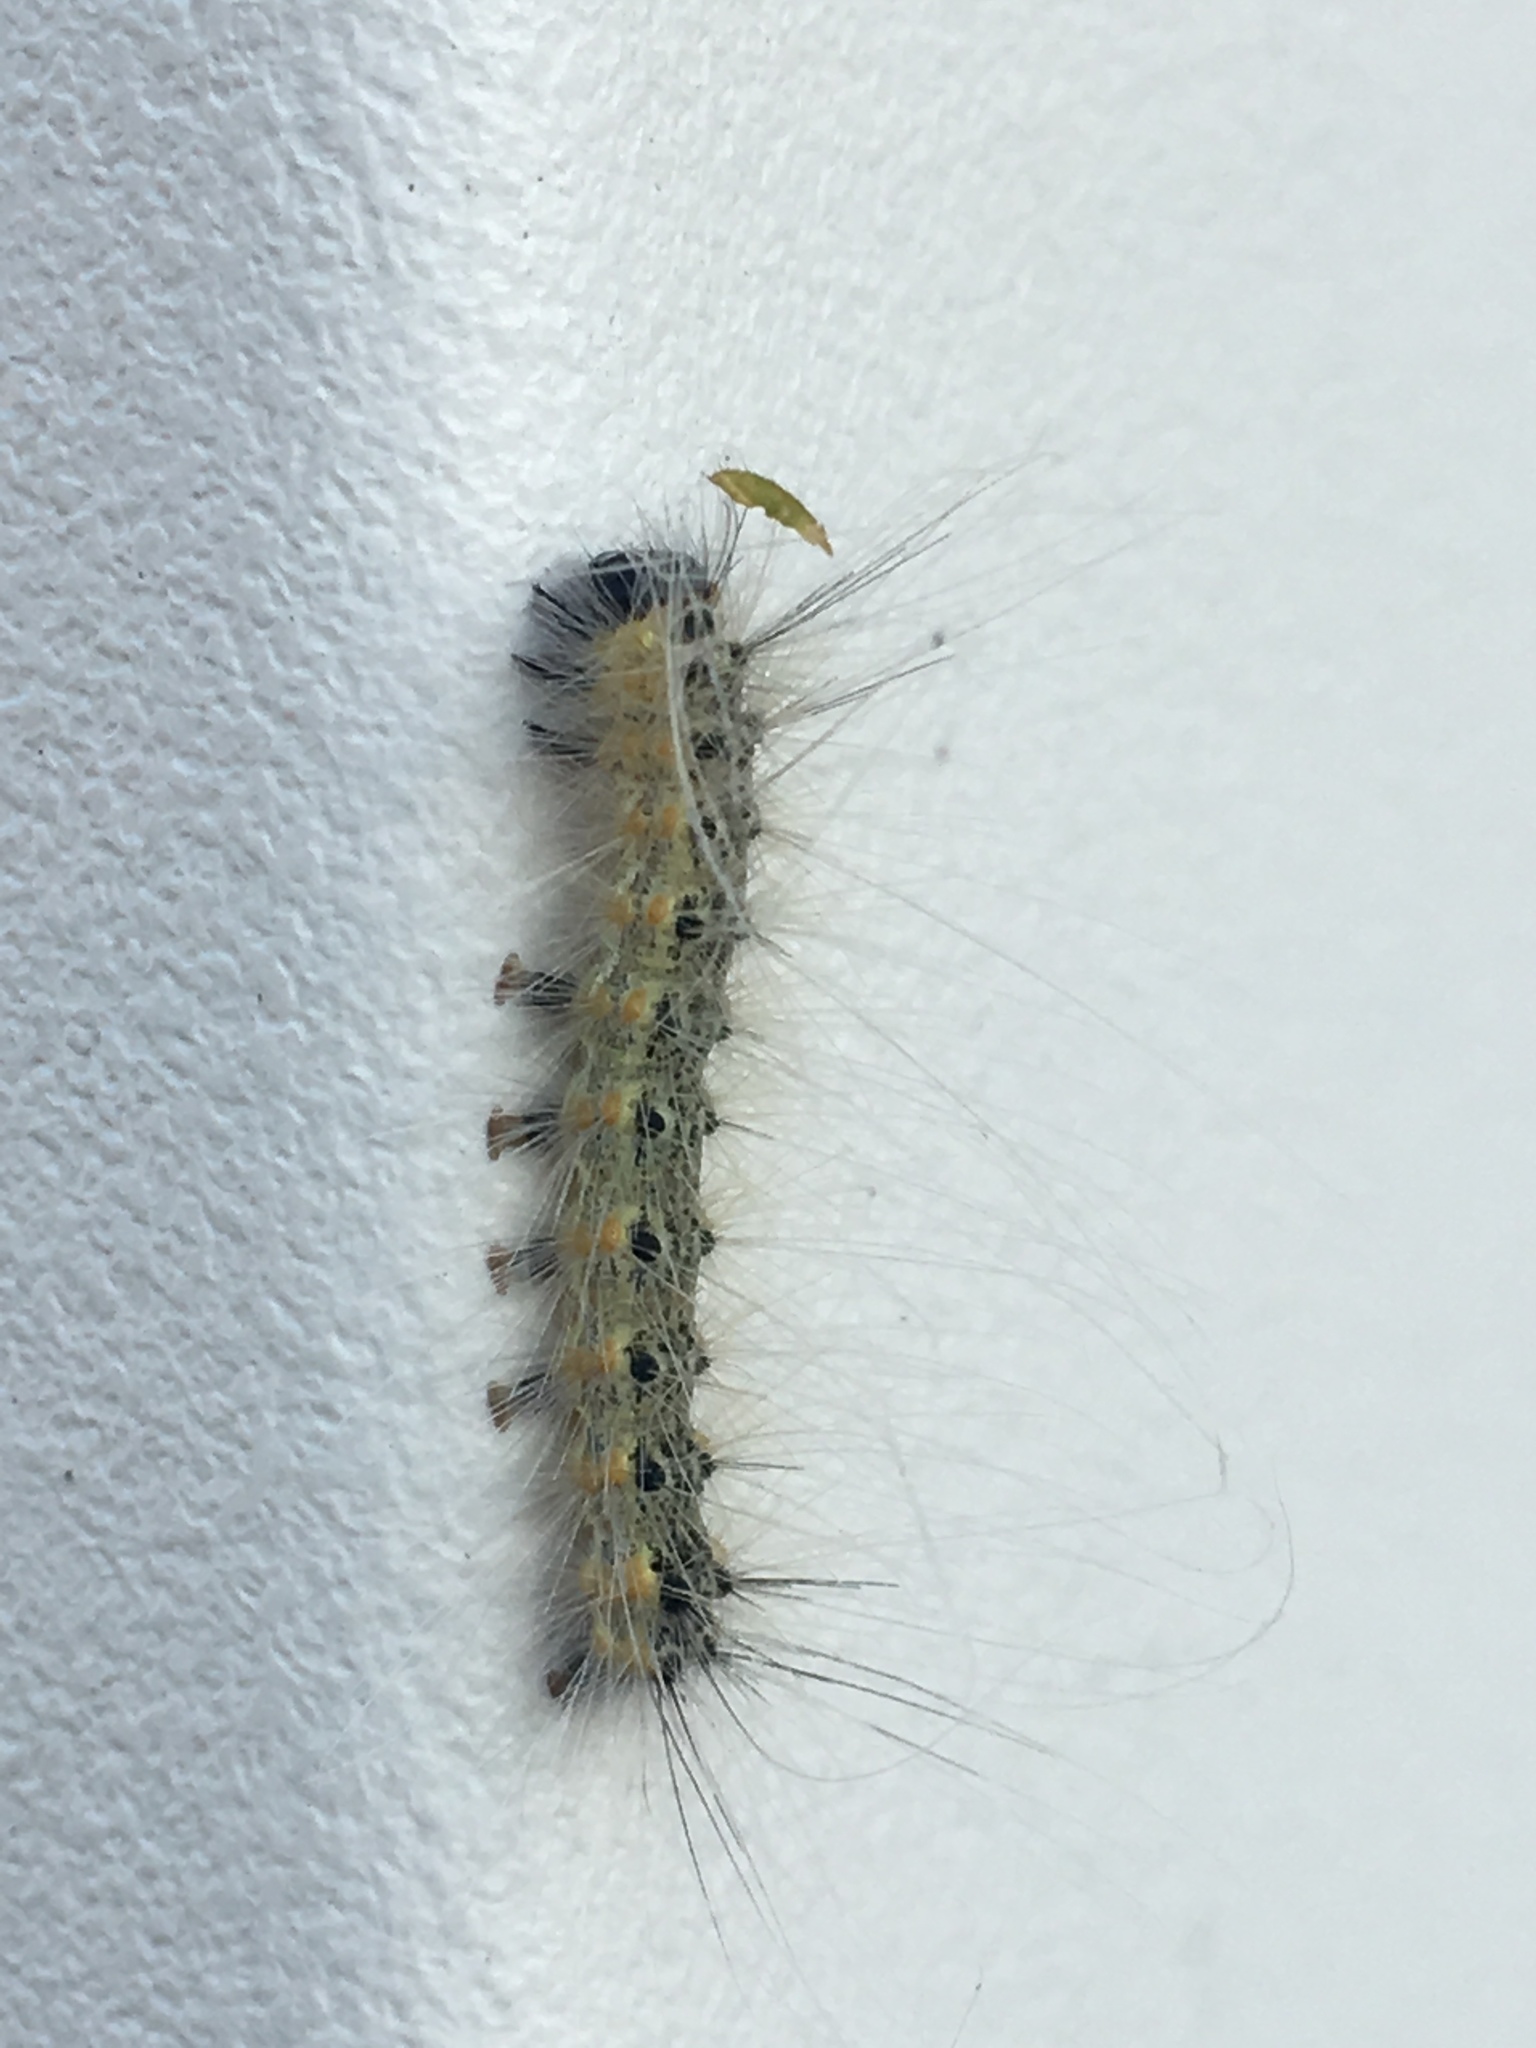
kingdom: Animalia
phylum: Arthropoda
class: Insecta
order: Lepidoptera
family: Erebidae
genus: Hyphantria
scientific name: Hyphantria cunea
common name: American white moth
